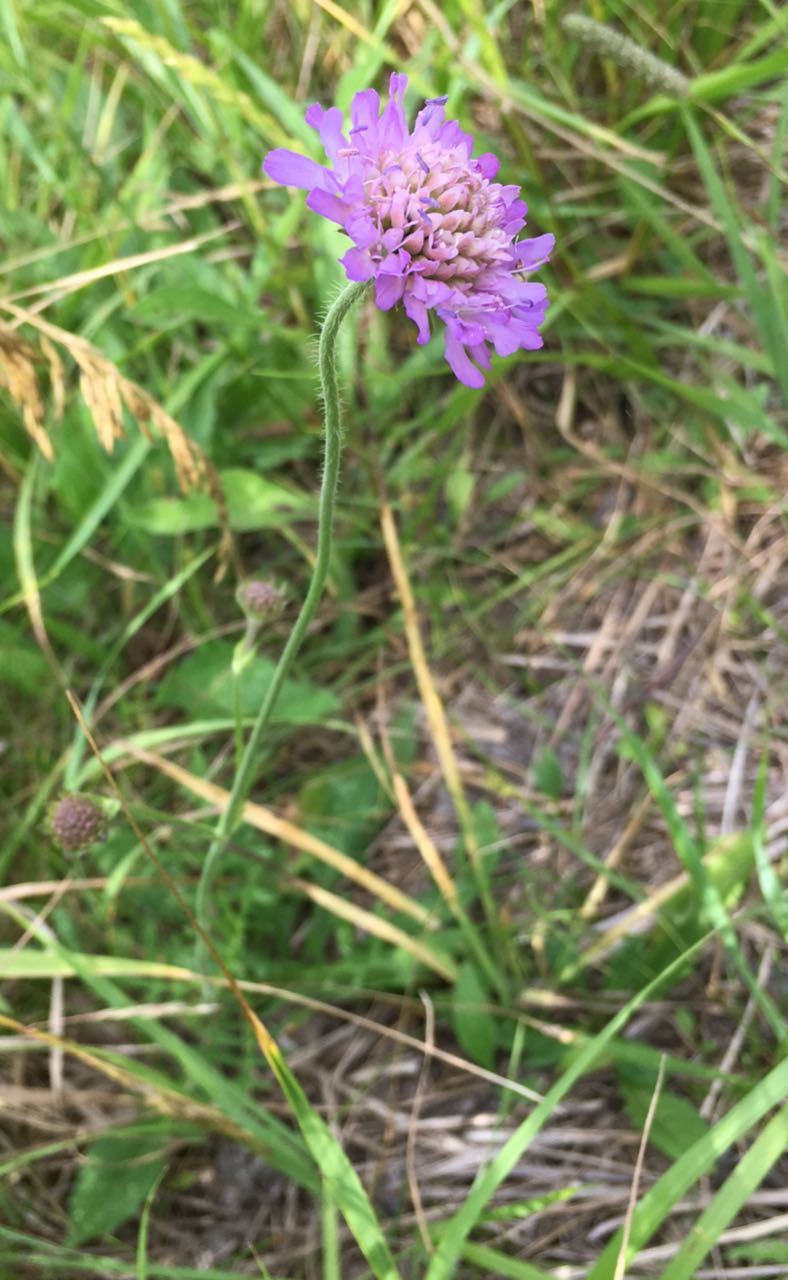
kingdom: Plantae
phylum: Tracheophyta
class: Magnoliopsida
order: Dipsacales
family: Caprifoliaceae
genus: Knautia
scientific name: Knautia arvensis
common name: Field scabiosa
